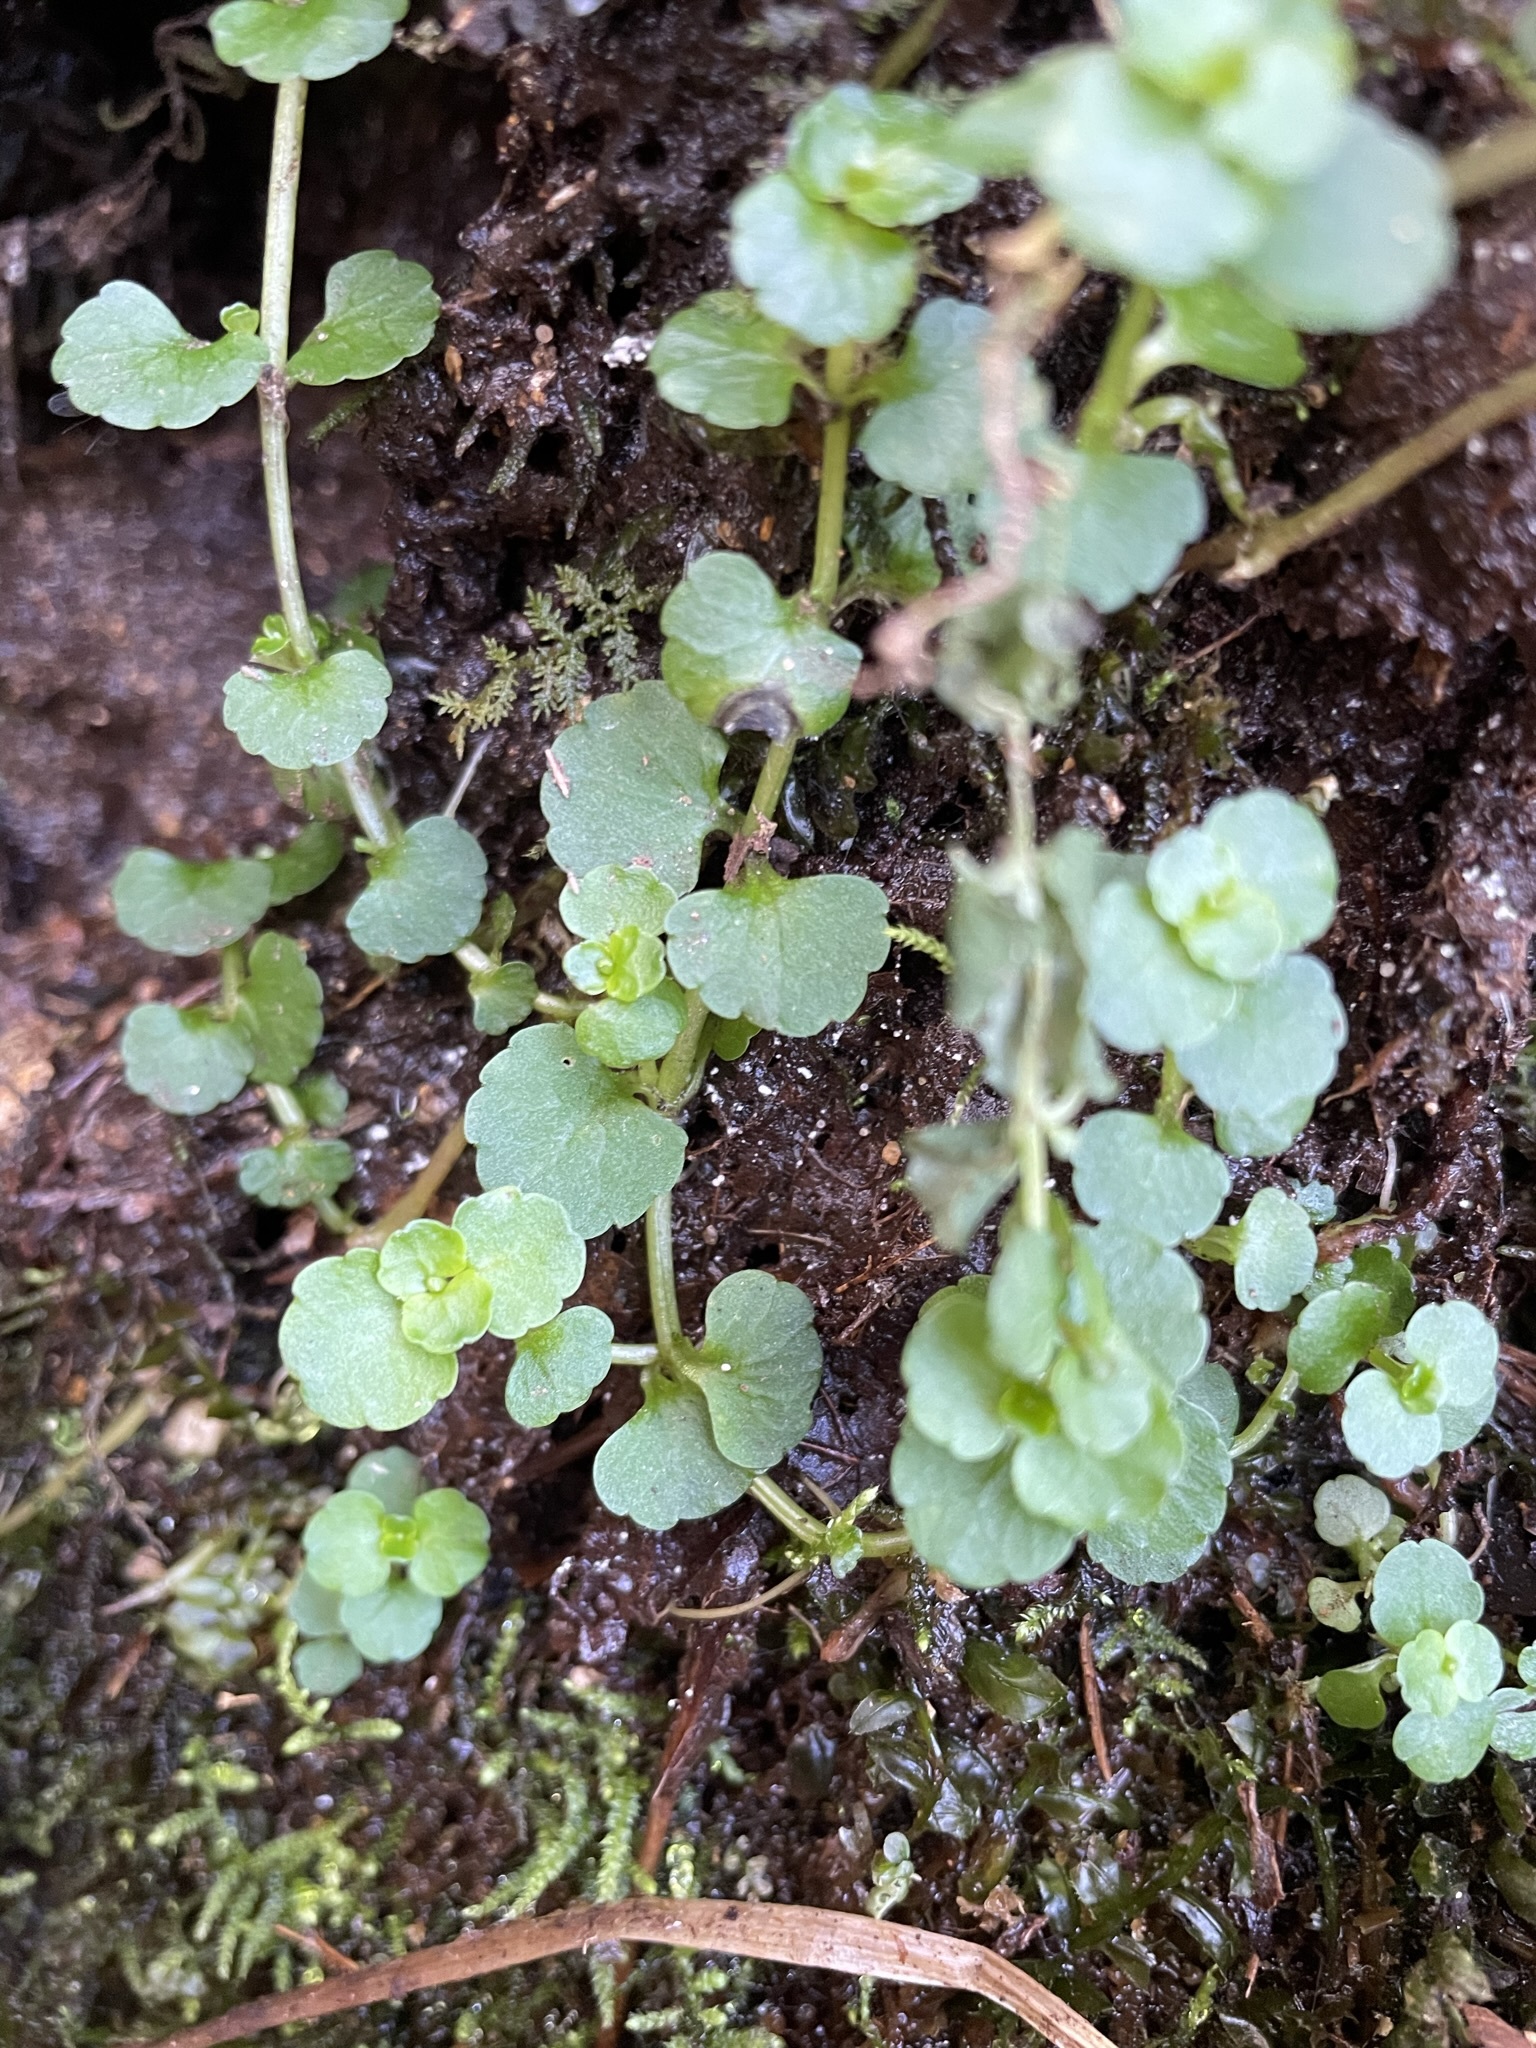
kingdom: Plantae
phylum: Tracheophyta
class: Magnoliopsida
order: Saxifragales
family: Saxifragaceae
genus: Chrysosplenium
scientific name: Chrysosplenium americanum
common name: American golden-saxifrage
